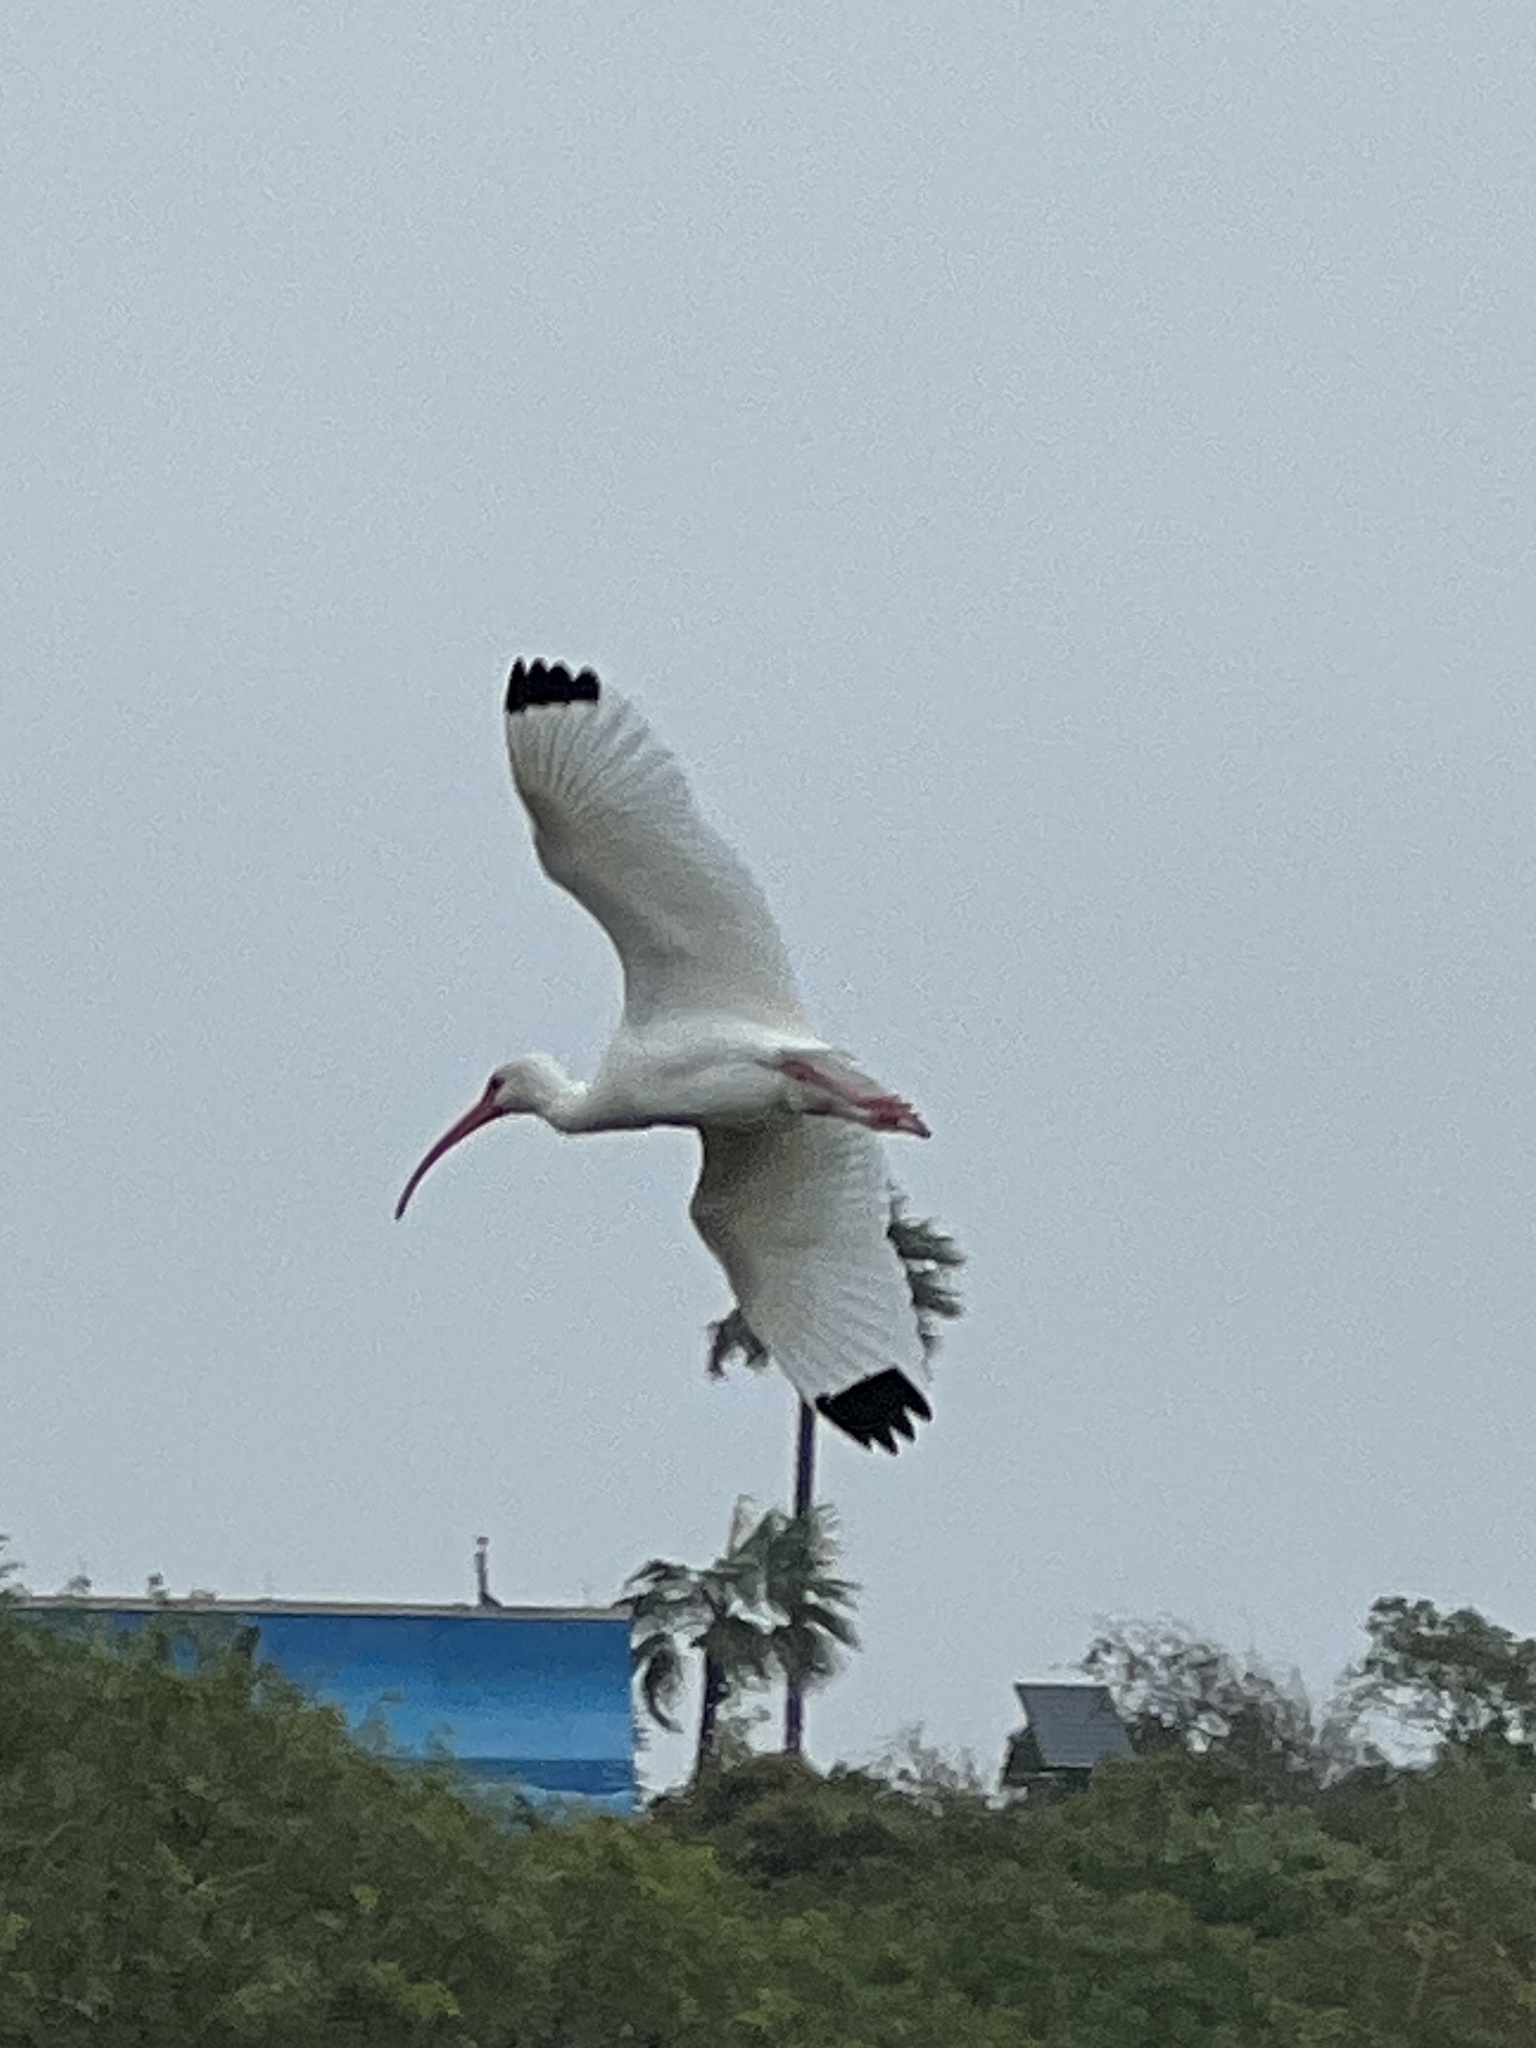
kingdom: Animalia
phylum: Chordata
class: Aves
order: Pelecaniformes
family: Threskiornithidae
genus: Eudocimus
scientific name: Eudocimus albus
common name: White ibis
